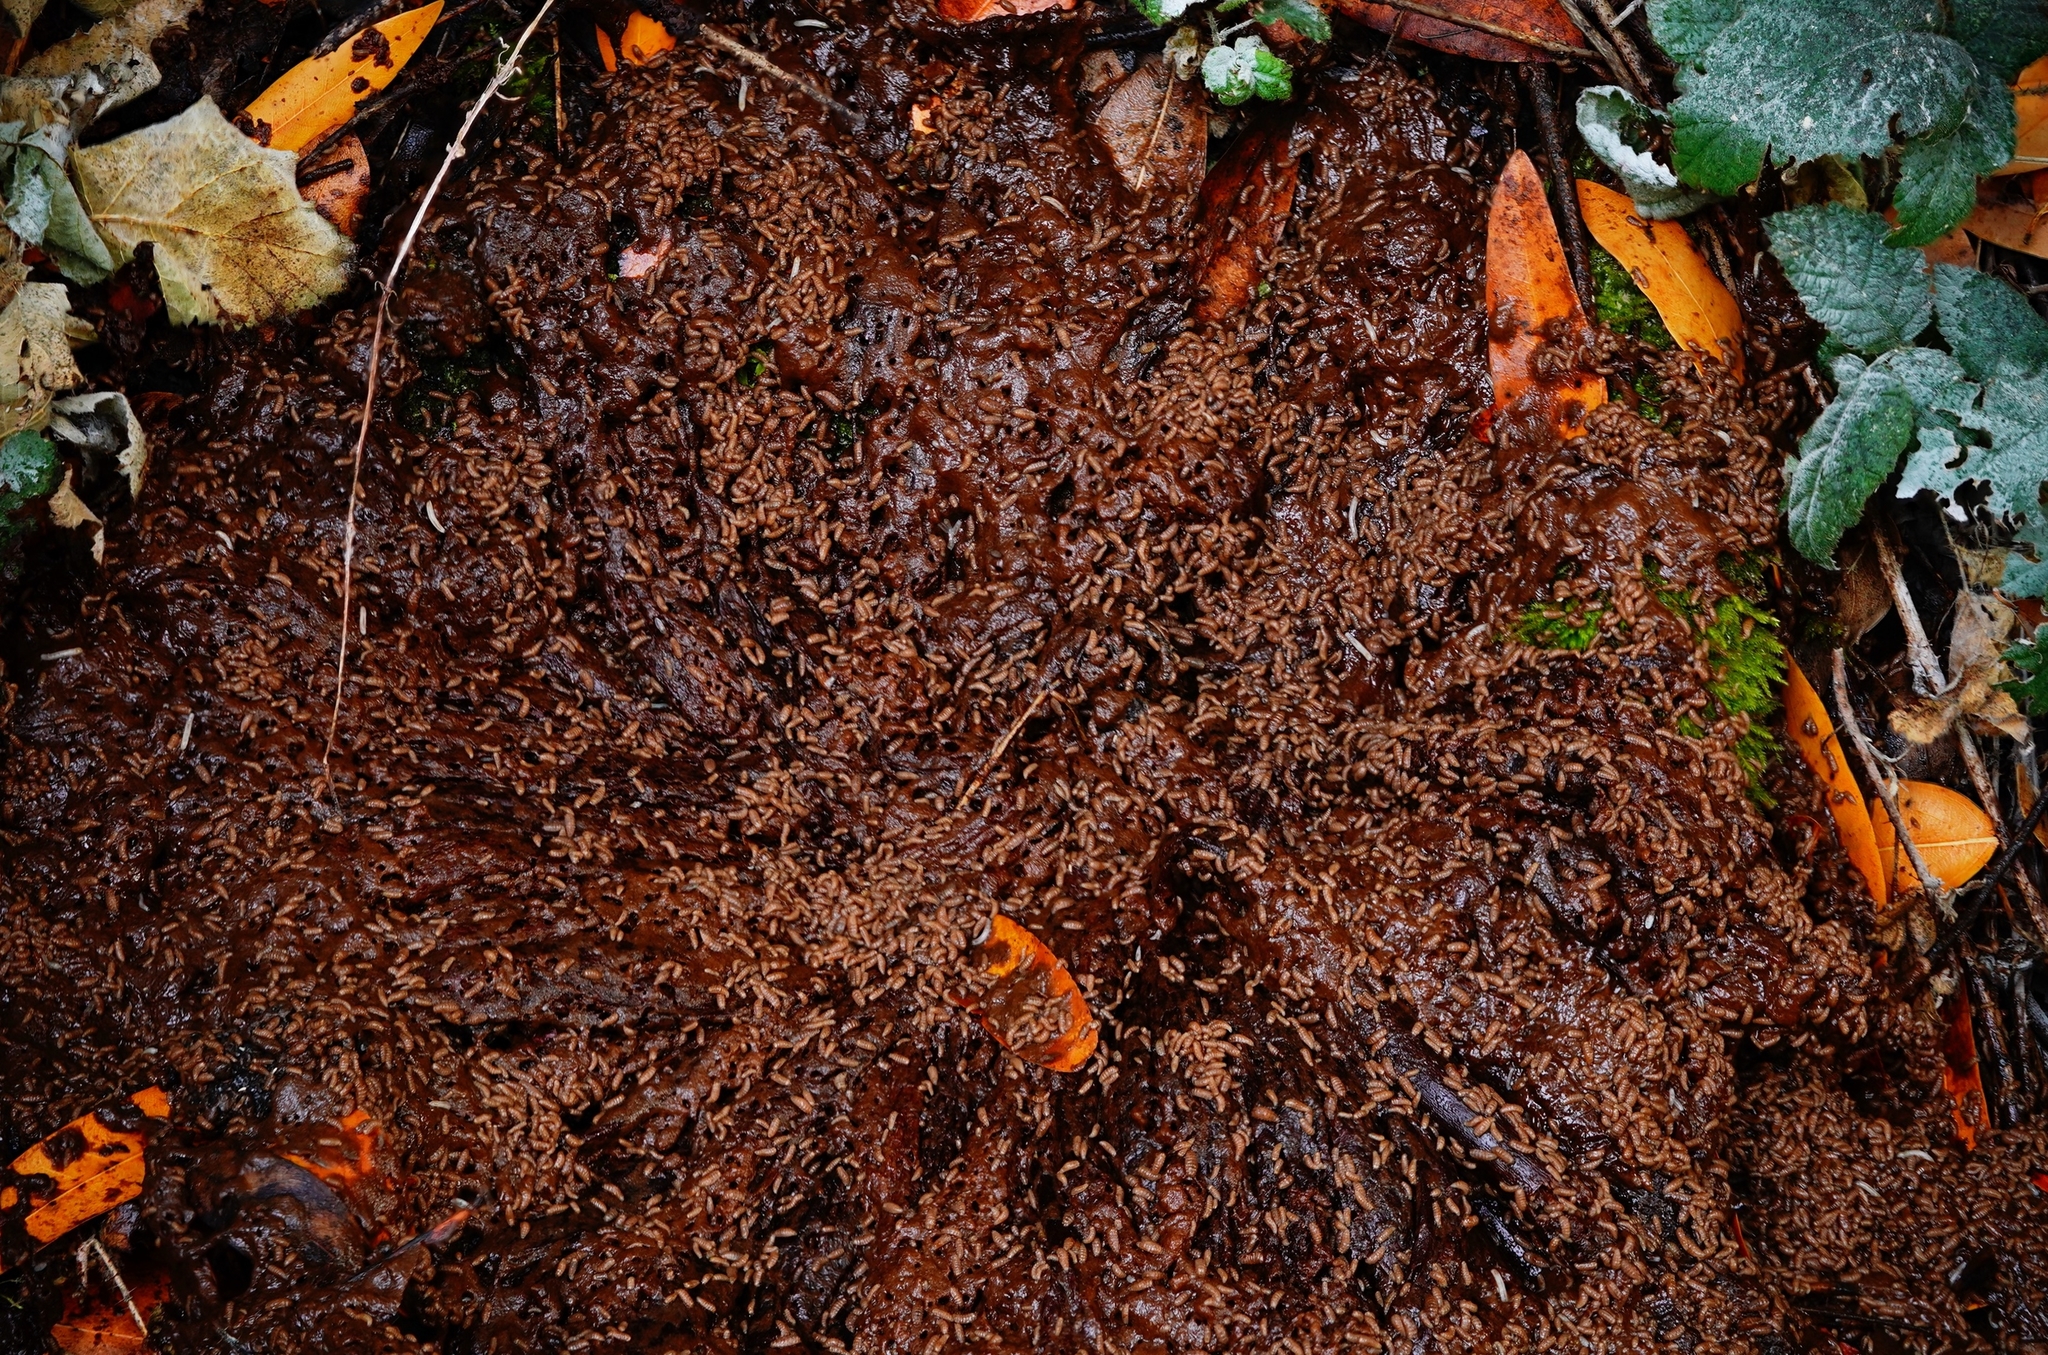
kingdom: Fungi
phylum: Basidiomycota
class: Agaricomycetes
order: Agaricales
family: Physalacriaceae
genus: Armillaria
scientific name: Armillaria mellea
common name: Honey fungus
